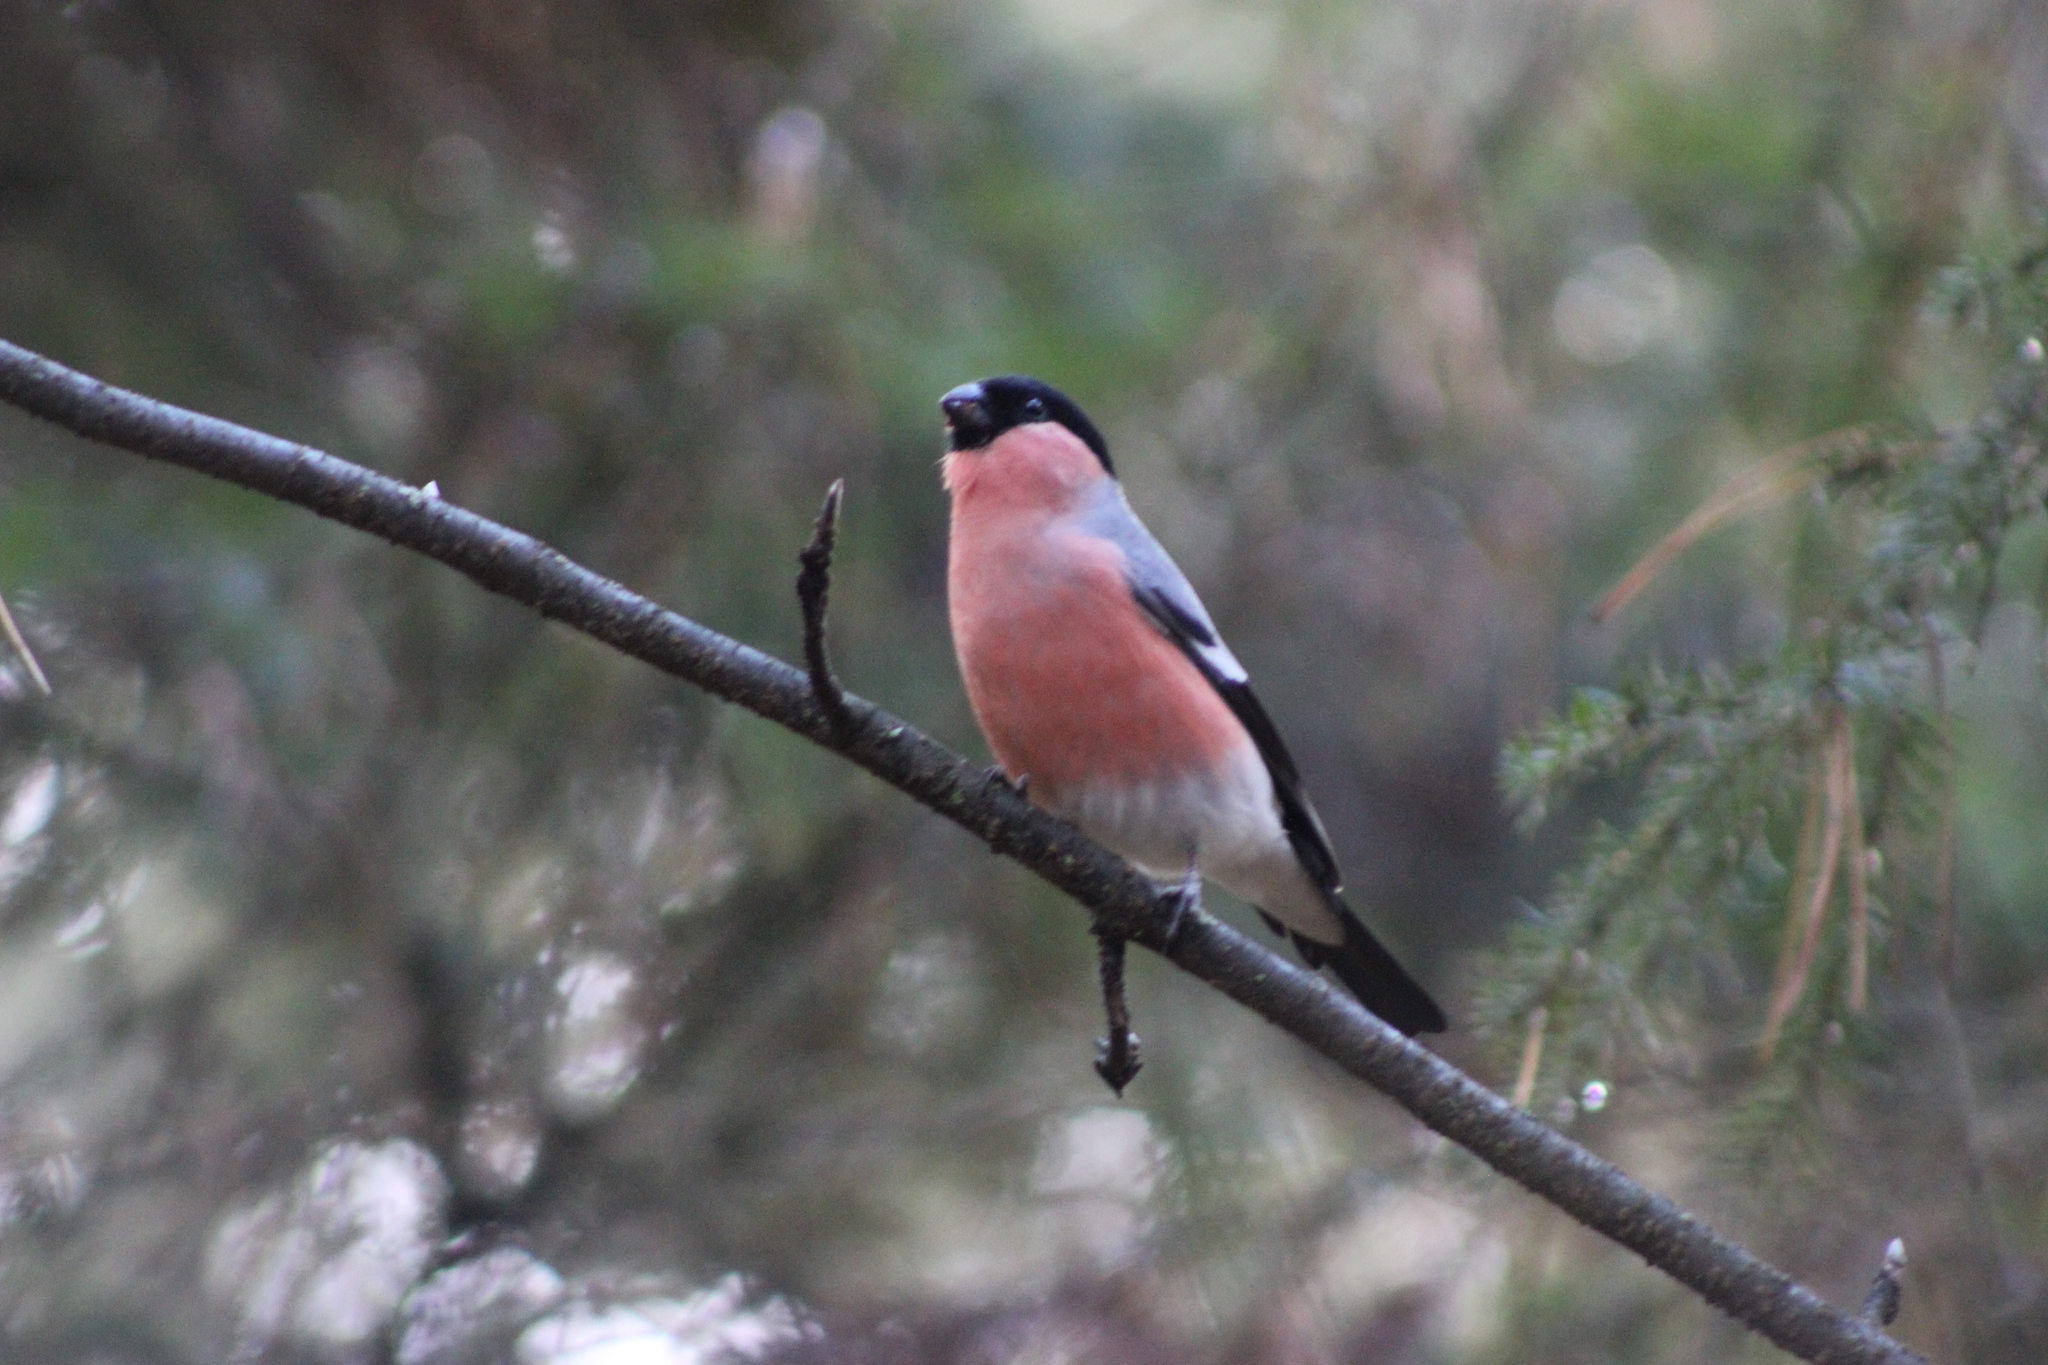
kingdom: Animalia
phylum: Chordata
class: Aves
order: Passeriformes
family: Fringillidae
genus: Pyrrhula
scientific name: Pyrrhula pyrrhula
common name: Eurasian bullfinch
